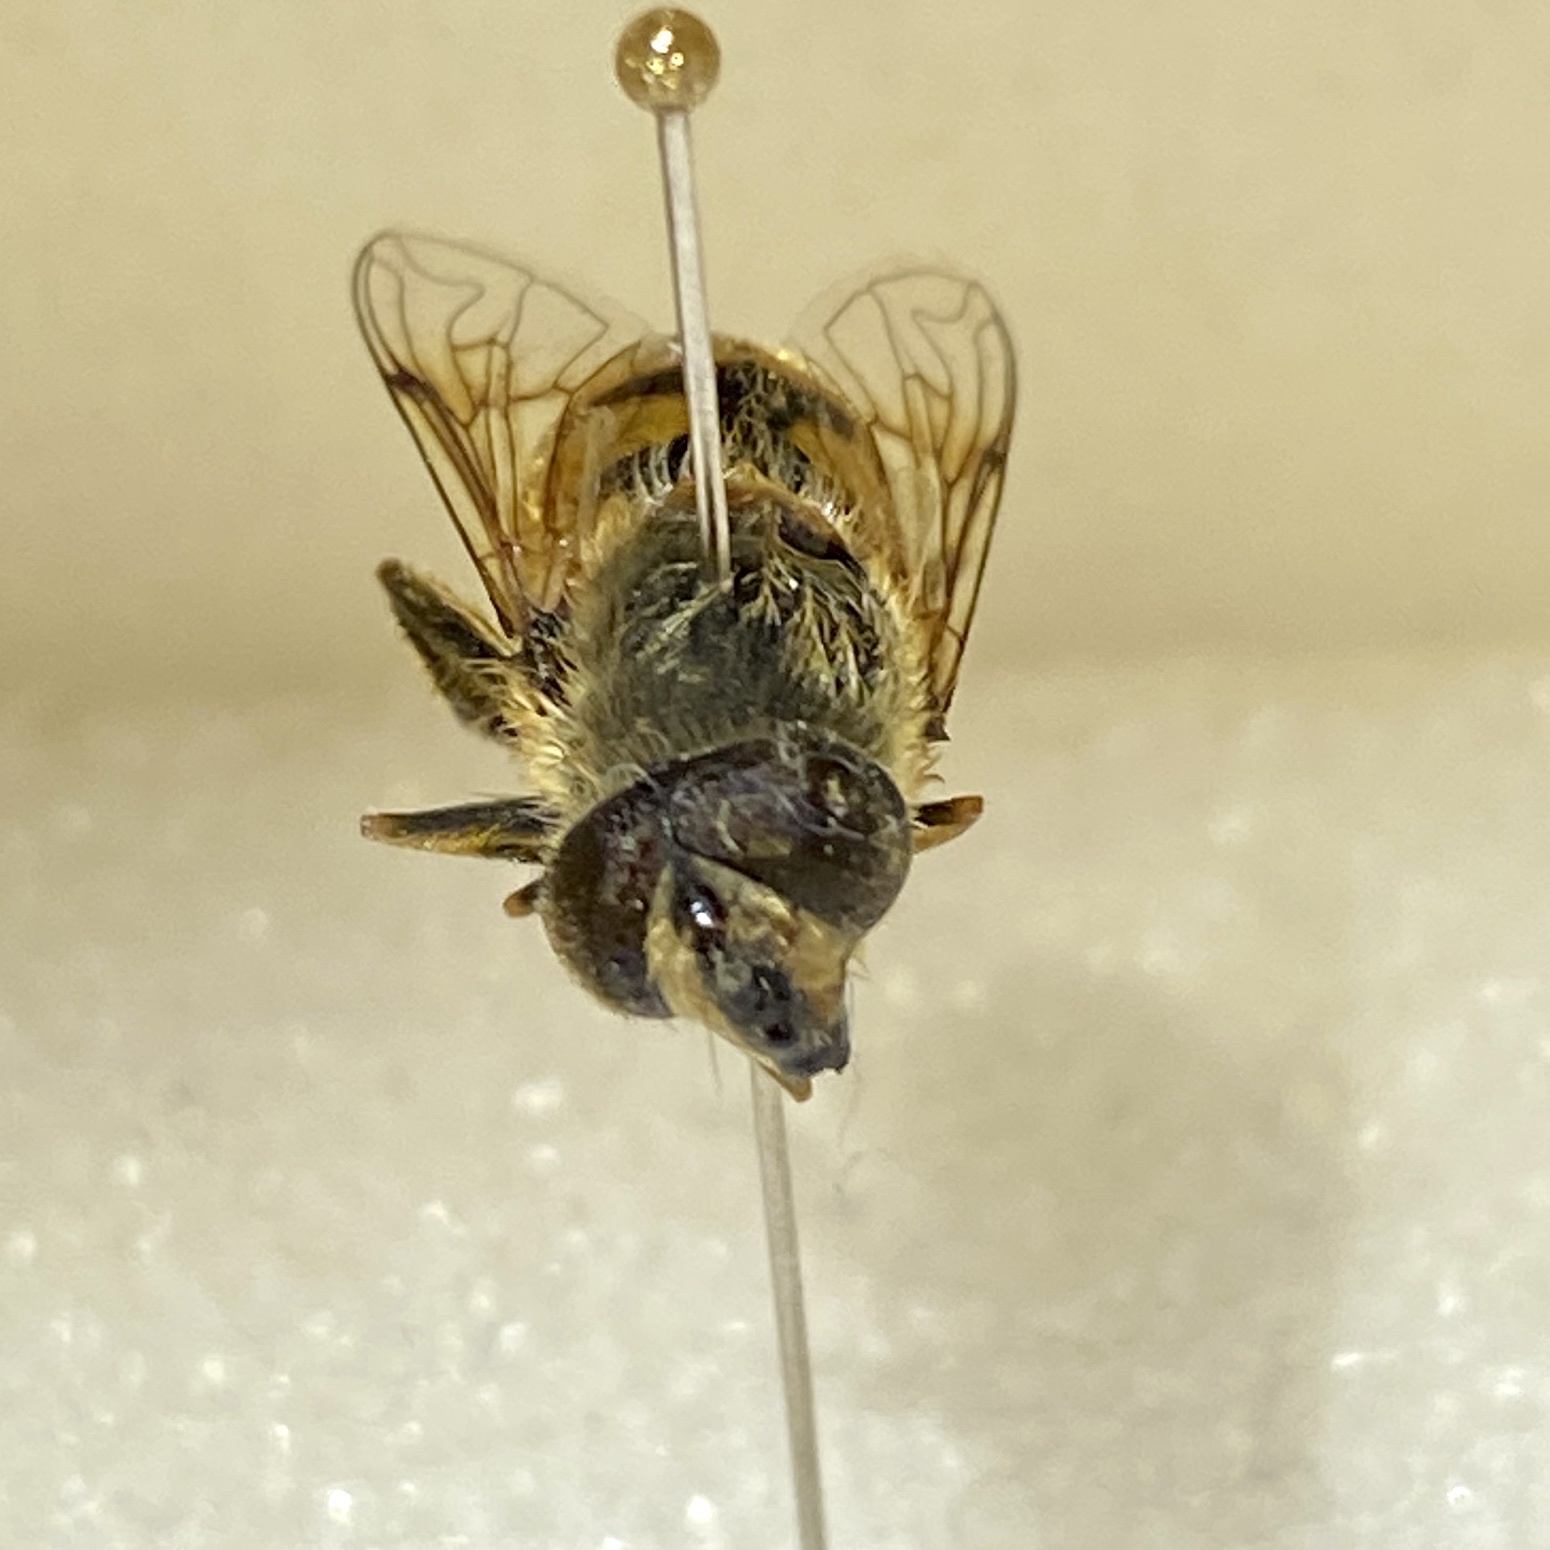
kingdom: Animalia
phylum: Arthropoda
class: Insecta
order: Diptera
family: Syrphidae
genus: Eristalis
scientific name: Eristalis tenax
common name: Drone fly
